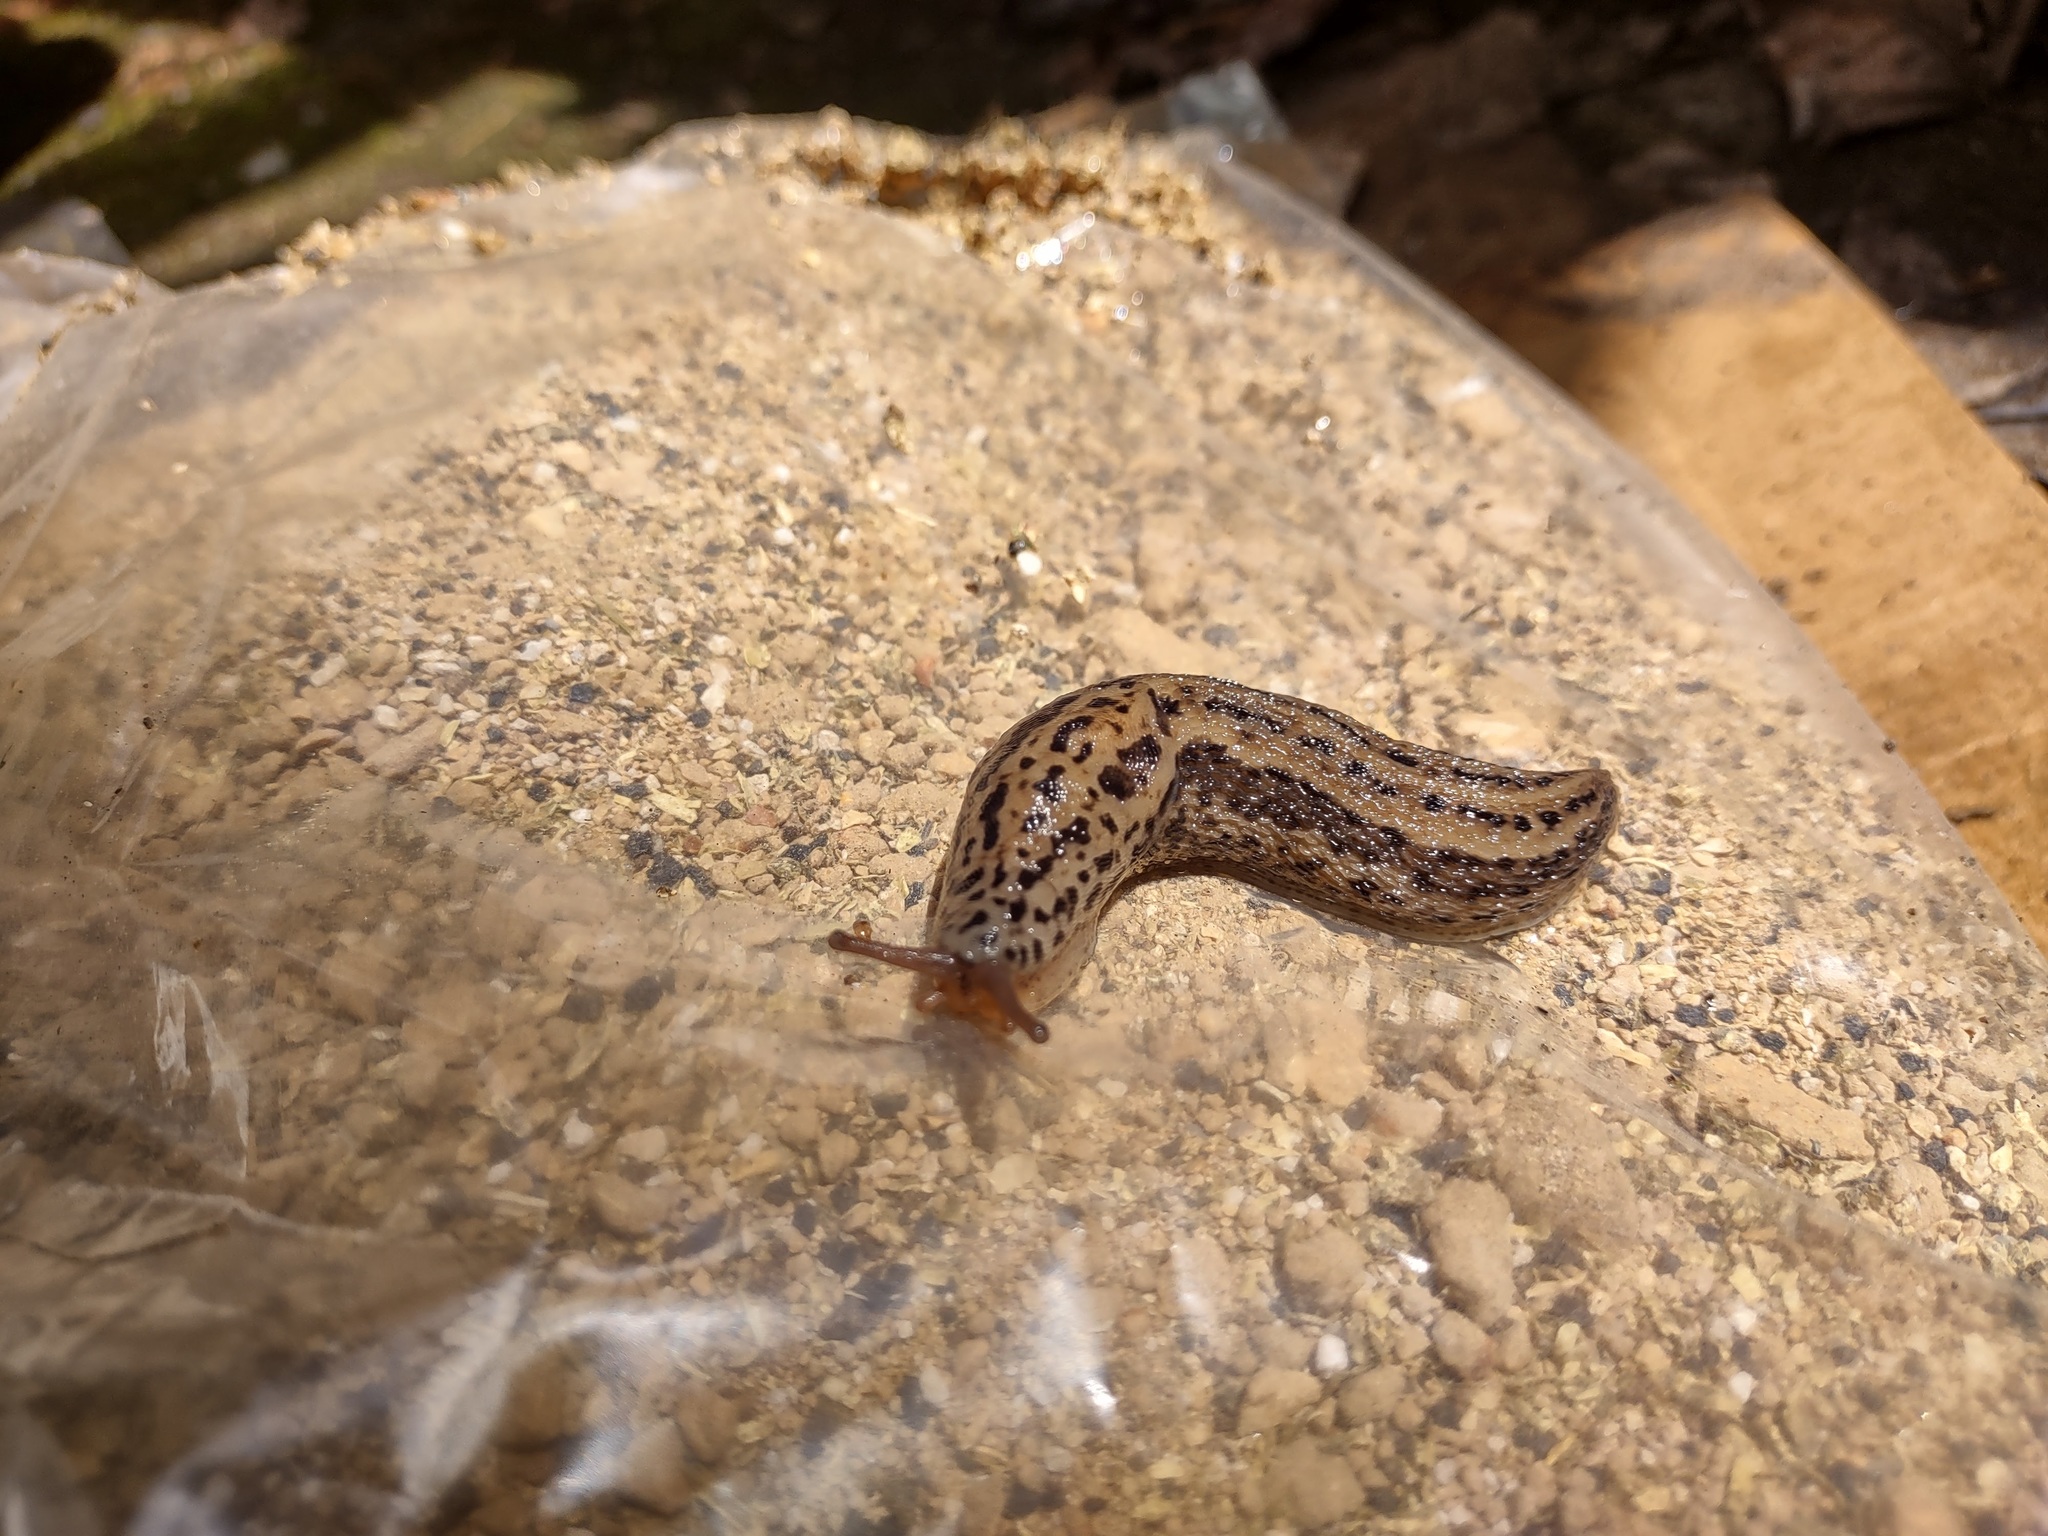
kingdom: Animalia
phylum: Mollusca
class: Gastropoda
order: Stylommatophora
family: Limacidae
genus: Limax
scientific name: Limax maximus
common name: Great grey slug
